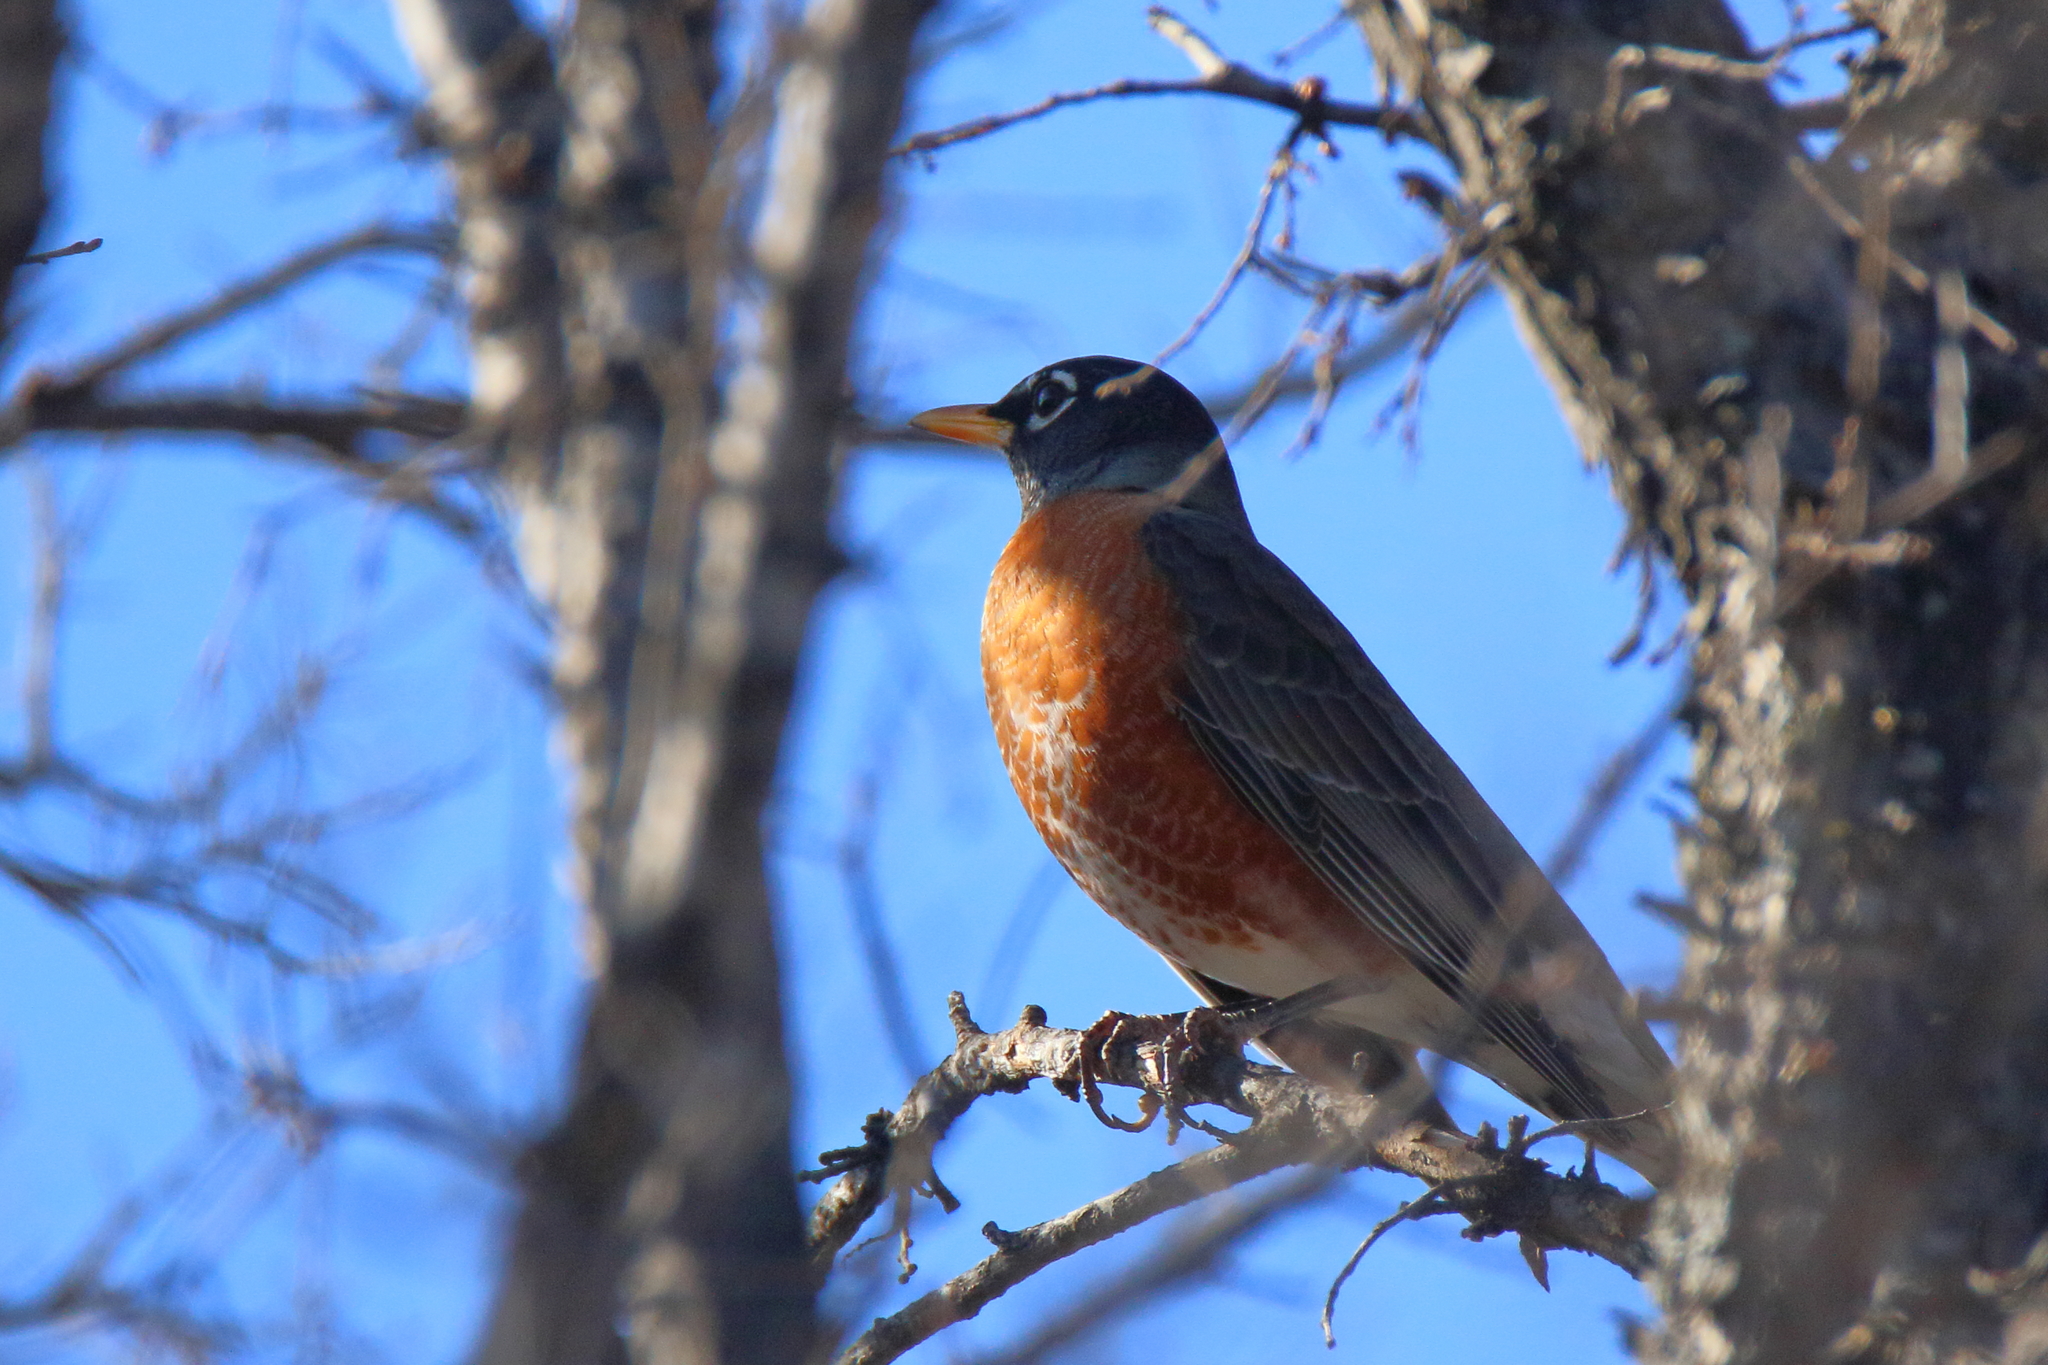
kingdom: Animalia
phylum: Chordata
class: Aves
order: Passeriformes
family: Turdidae
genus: Turdus
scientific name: Turdus migratorius
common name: American robin
